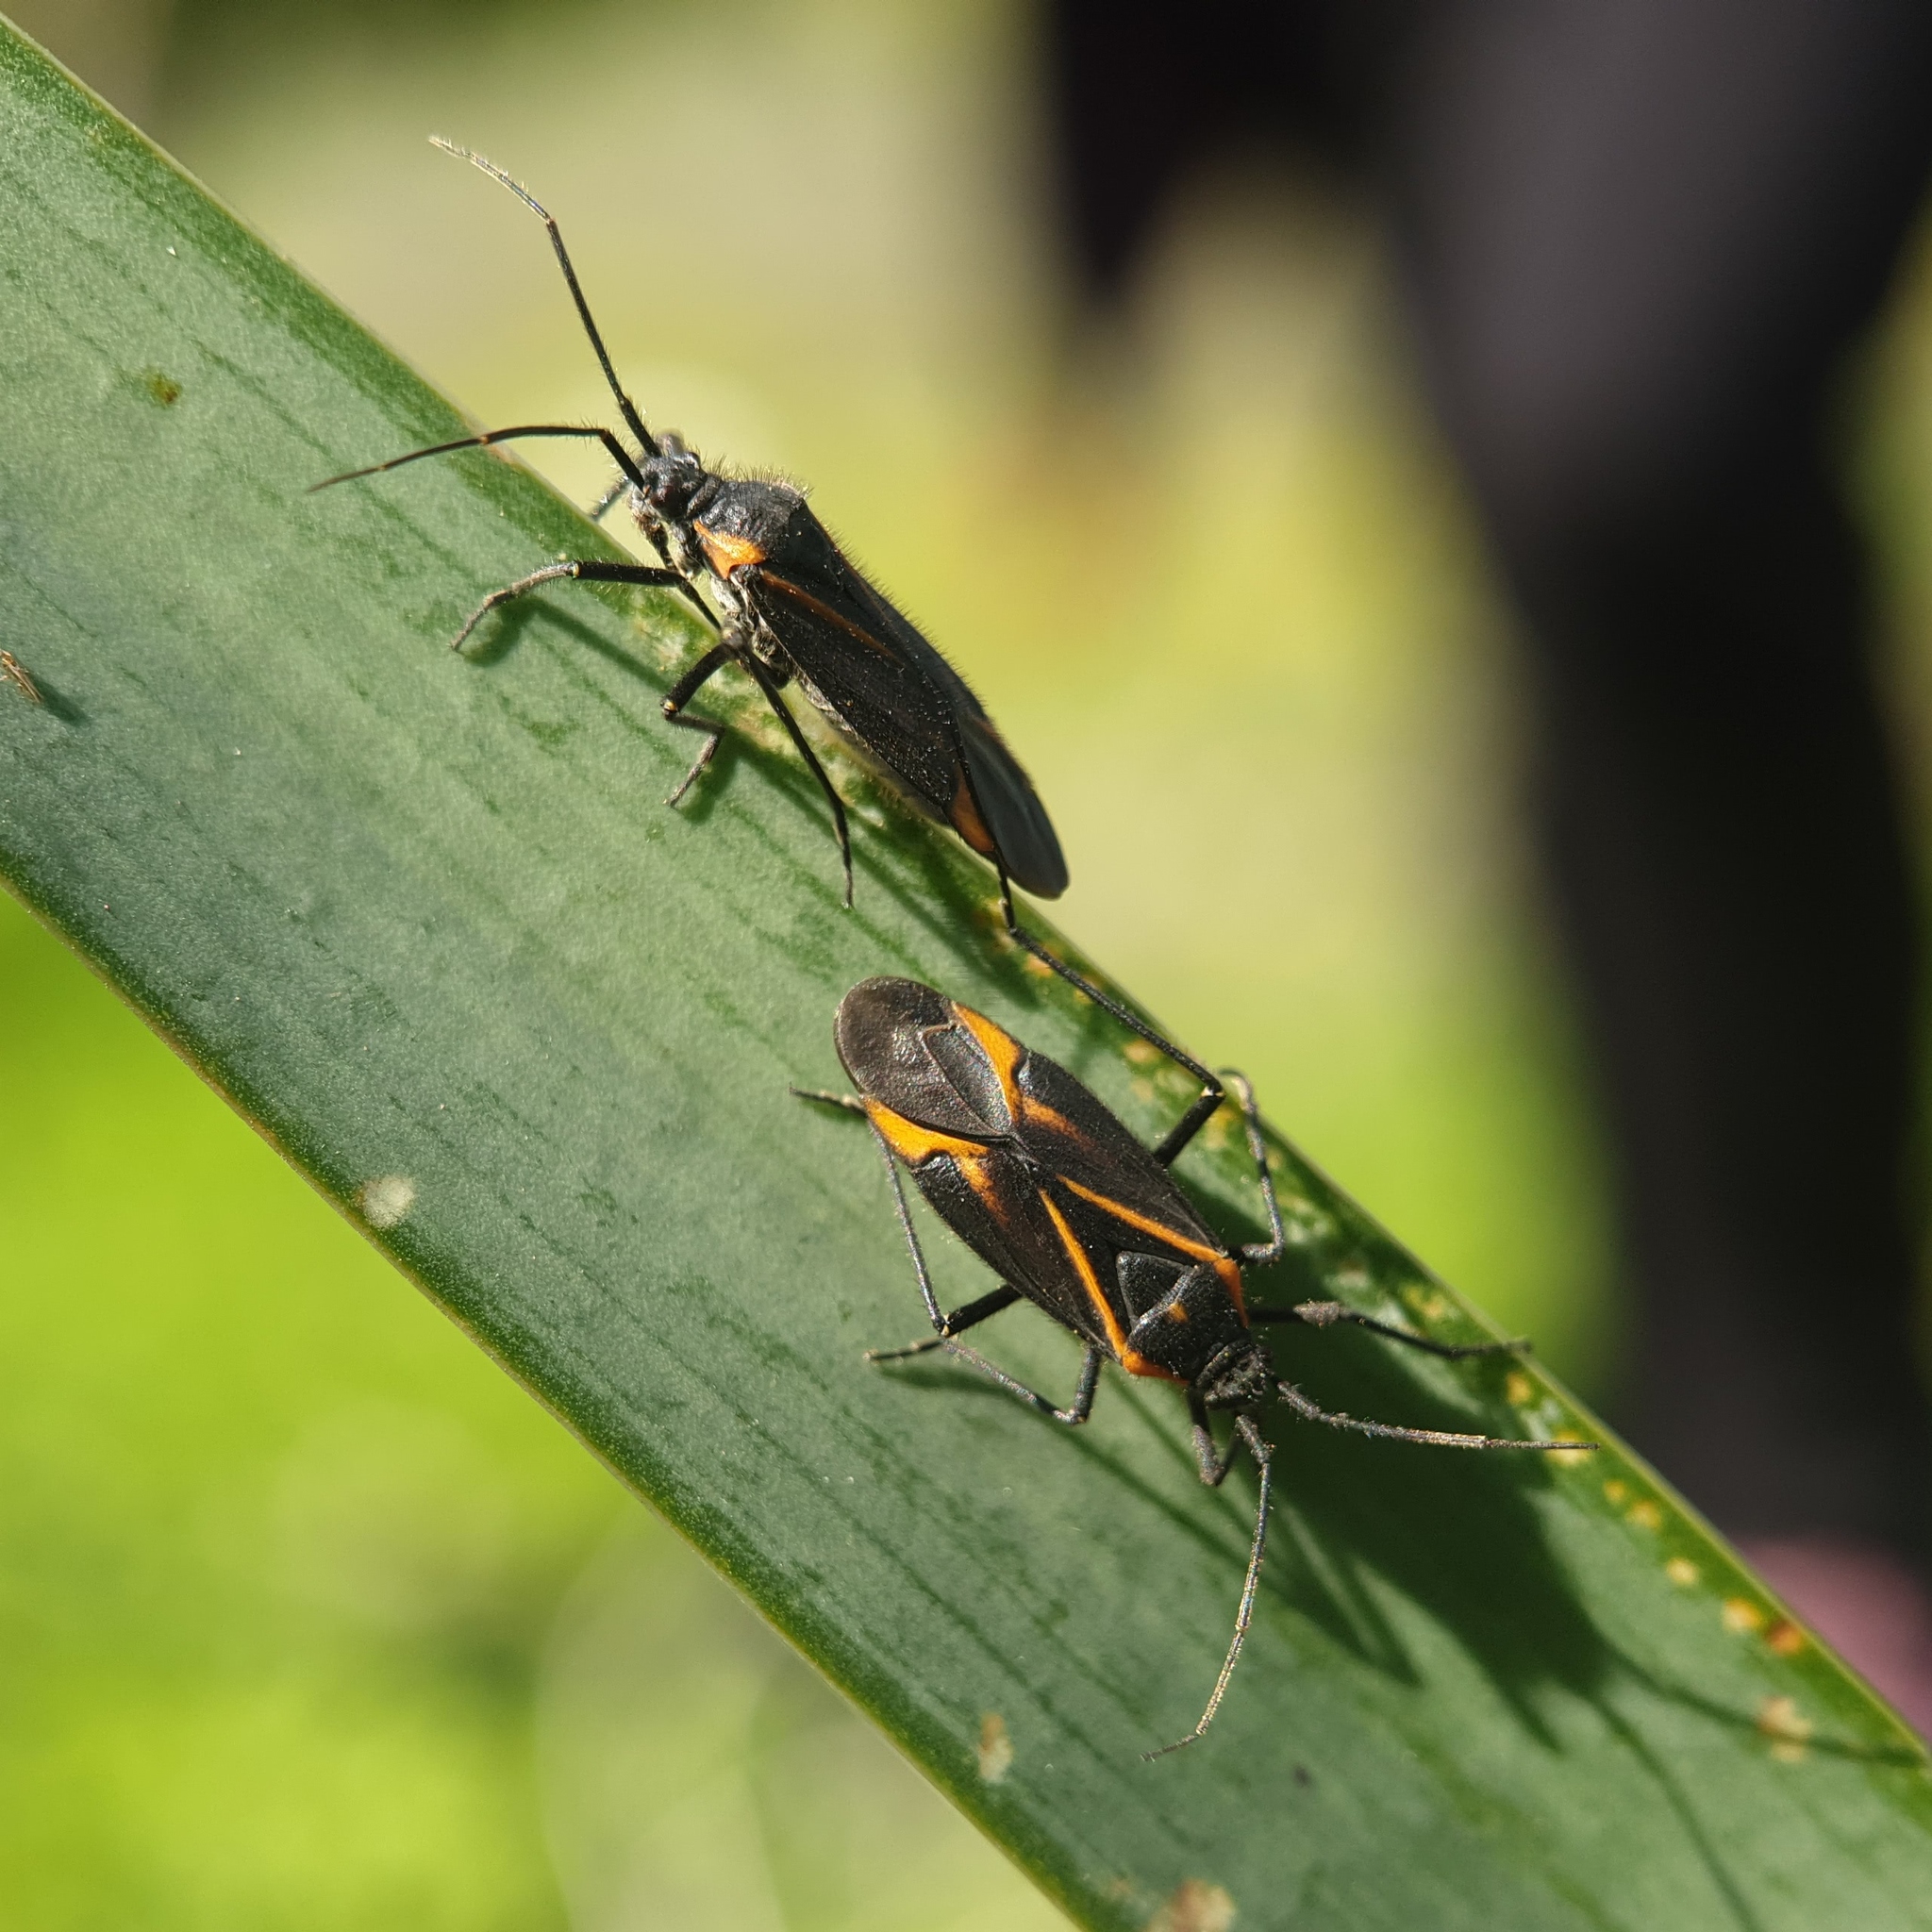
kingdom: Animalia
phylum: Arthropoda
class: Insecta
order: Hemiptera
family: Miridae
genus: Horistus
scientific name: Horistus turcomanus
